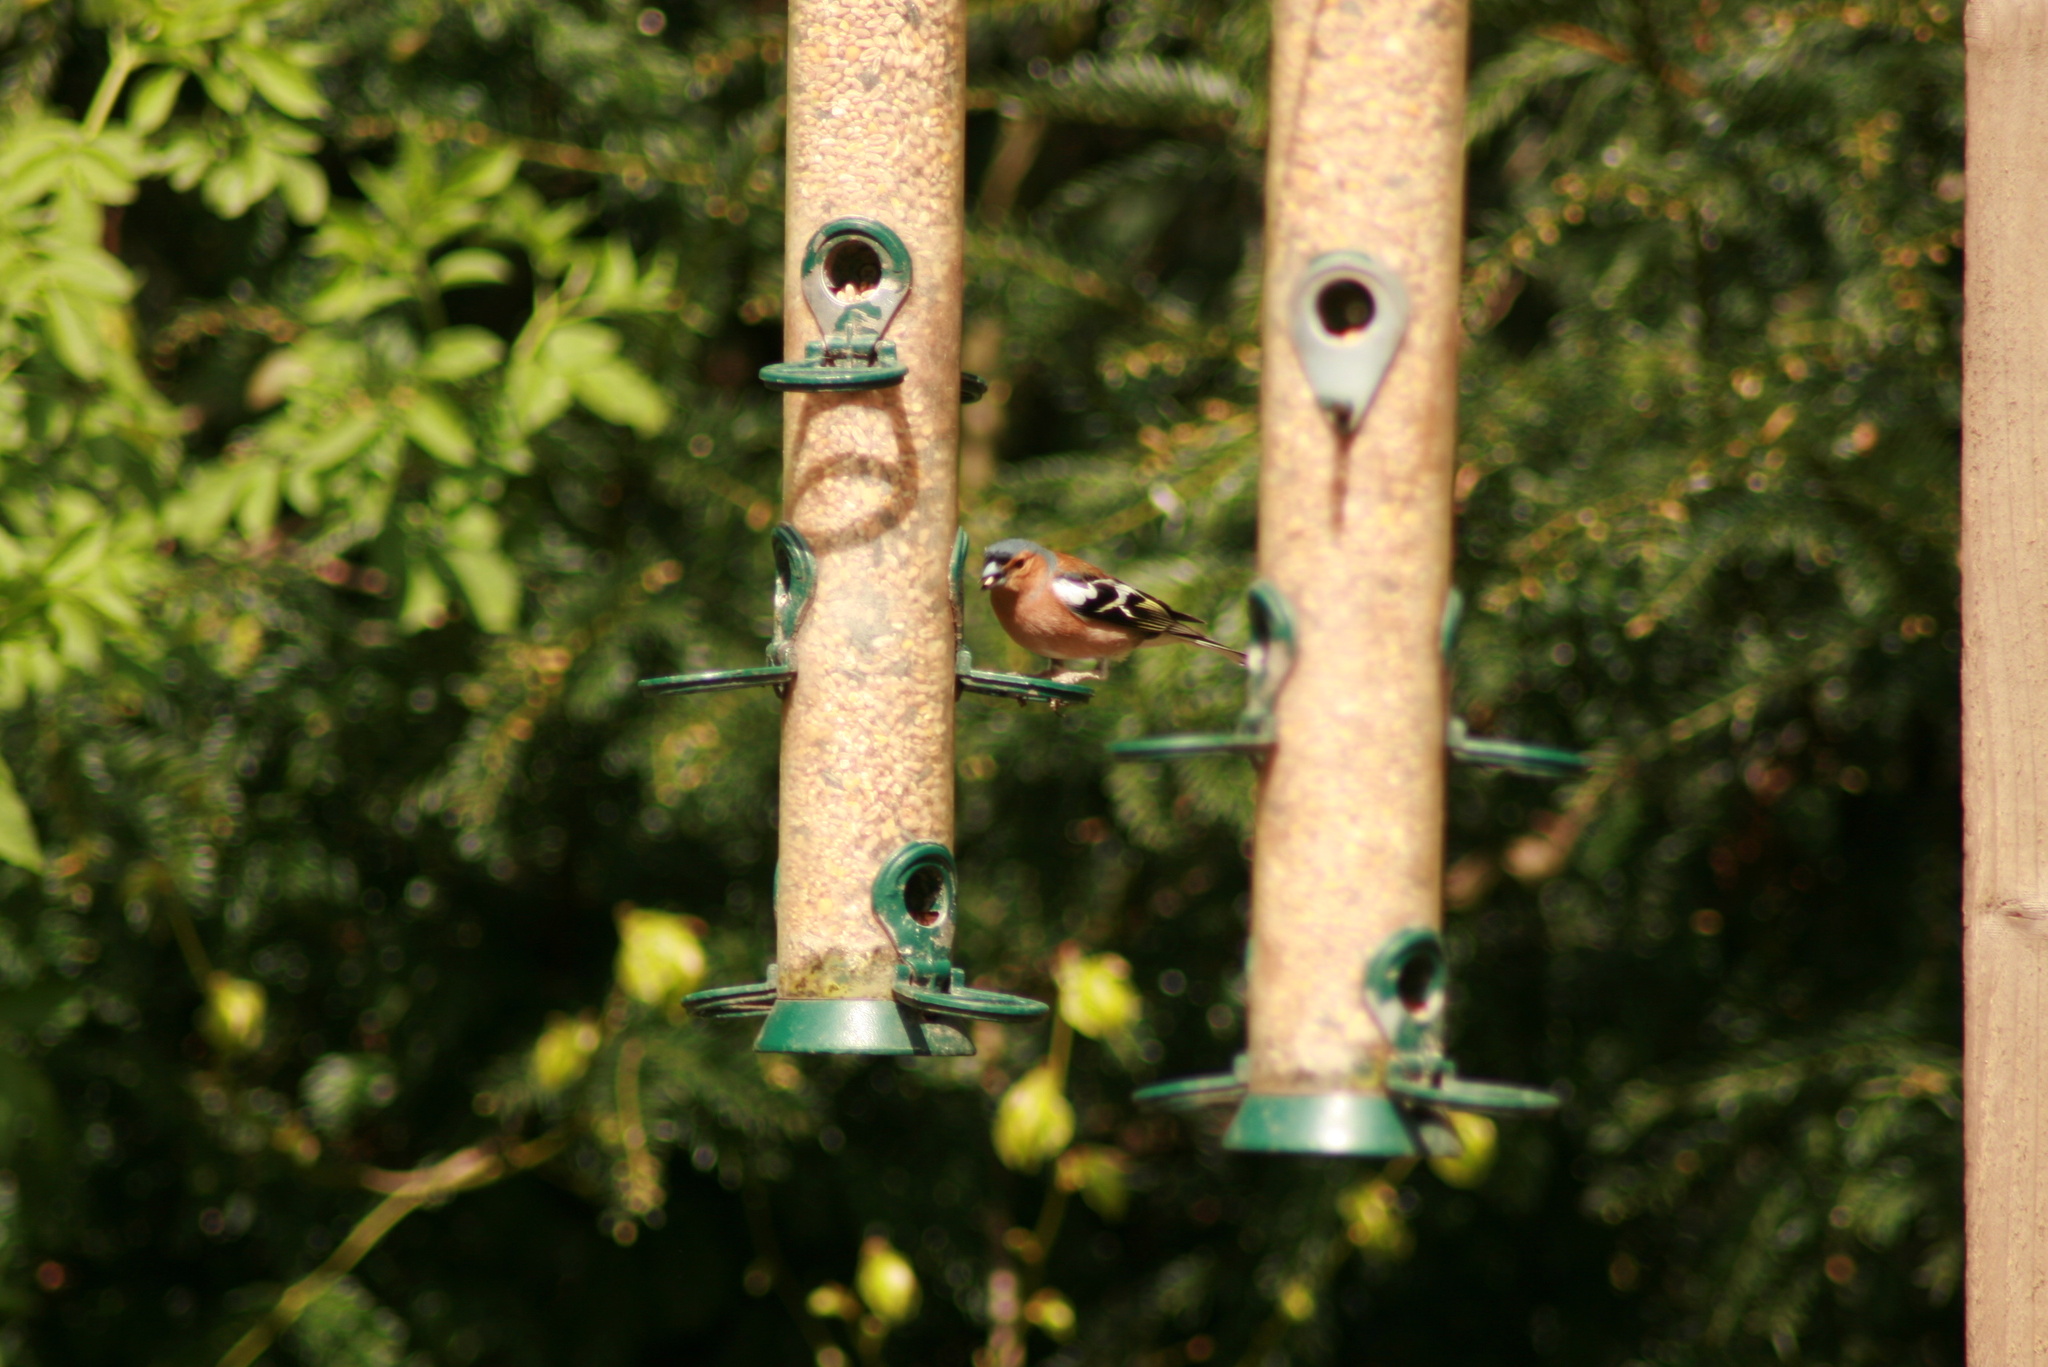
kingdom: Animalia
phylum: Chordata
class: Aves
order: Passeriformes
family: Fringillidae
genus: Fringilla
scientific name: Fringilla coelebs
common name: Common chaffinch
